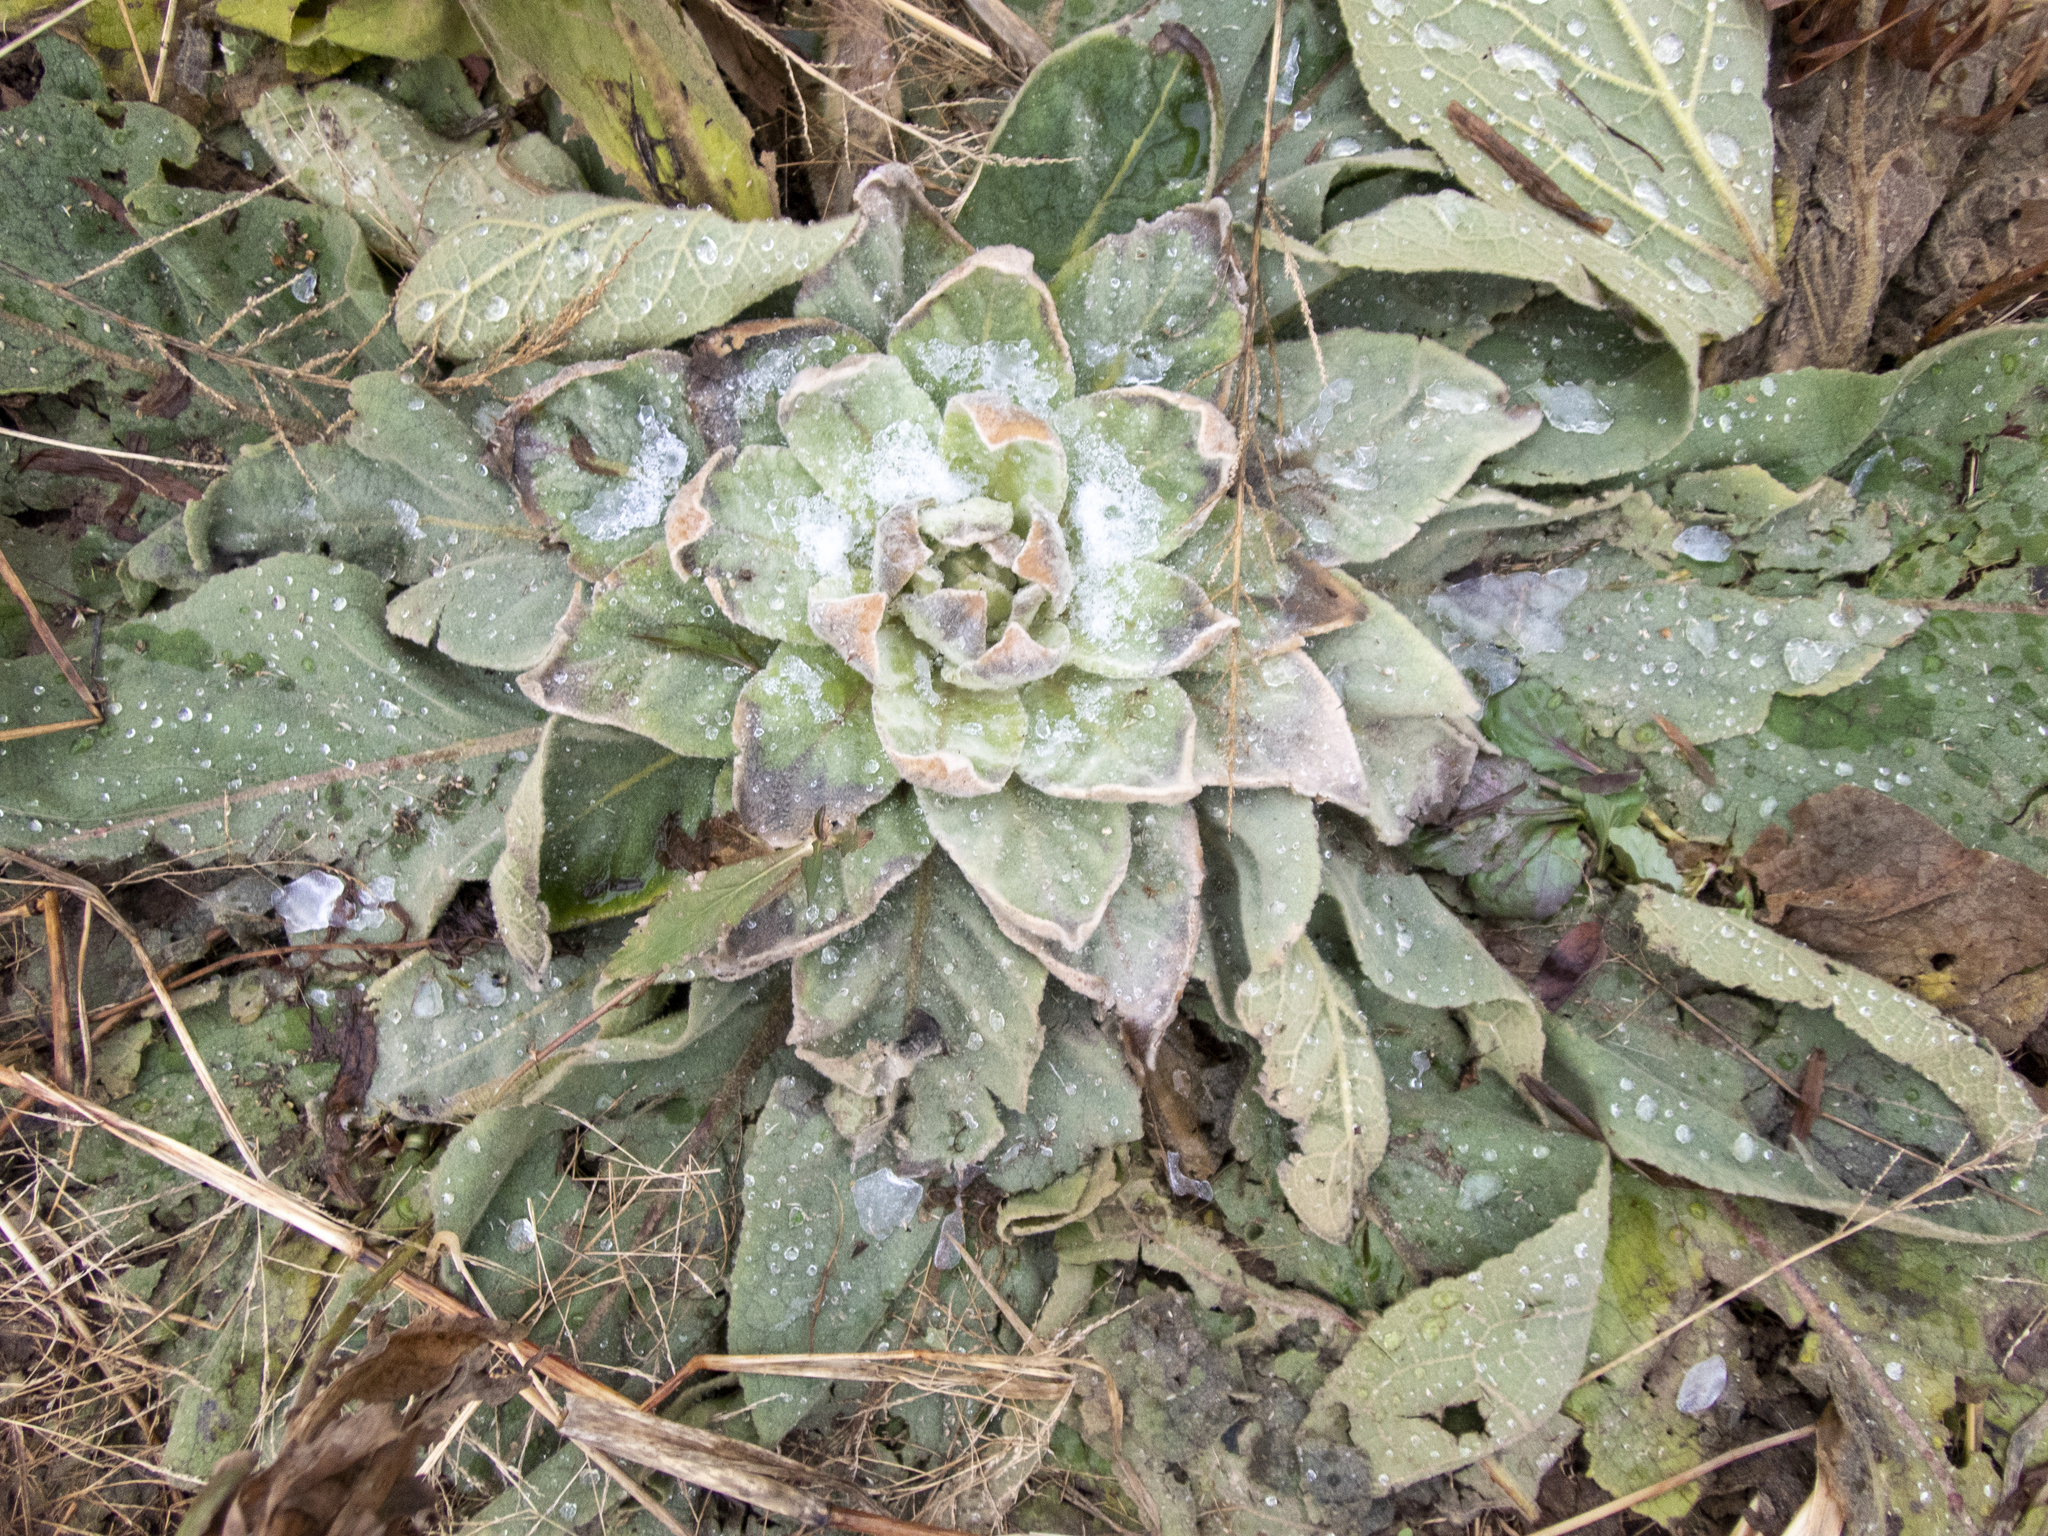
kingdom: Plantae
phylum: Tracheophyta
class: Magnoliopsida
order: Lamiales
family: Scrophulariaceae
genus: Verbascum
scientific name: Verbascum thapsus
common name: Common mullein
